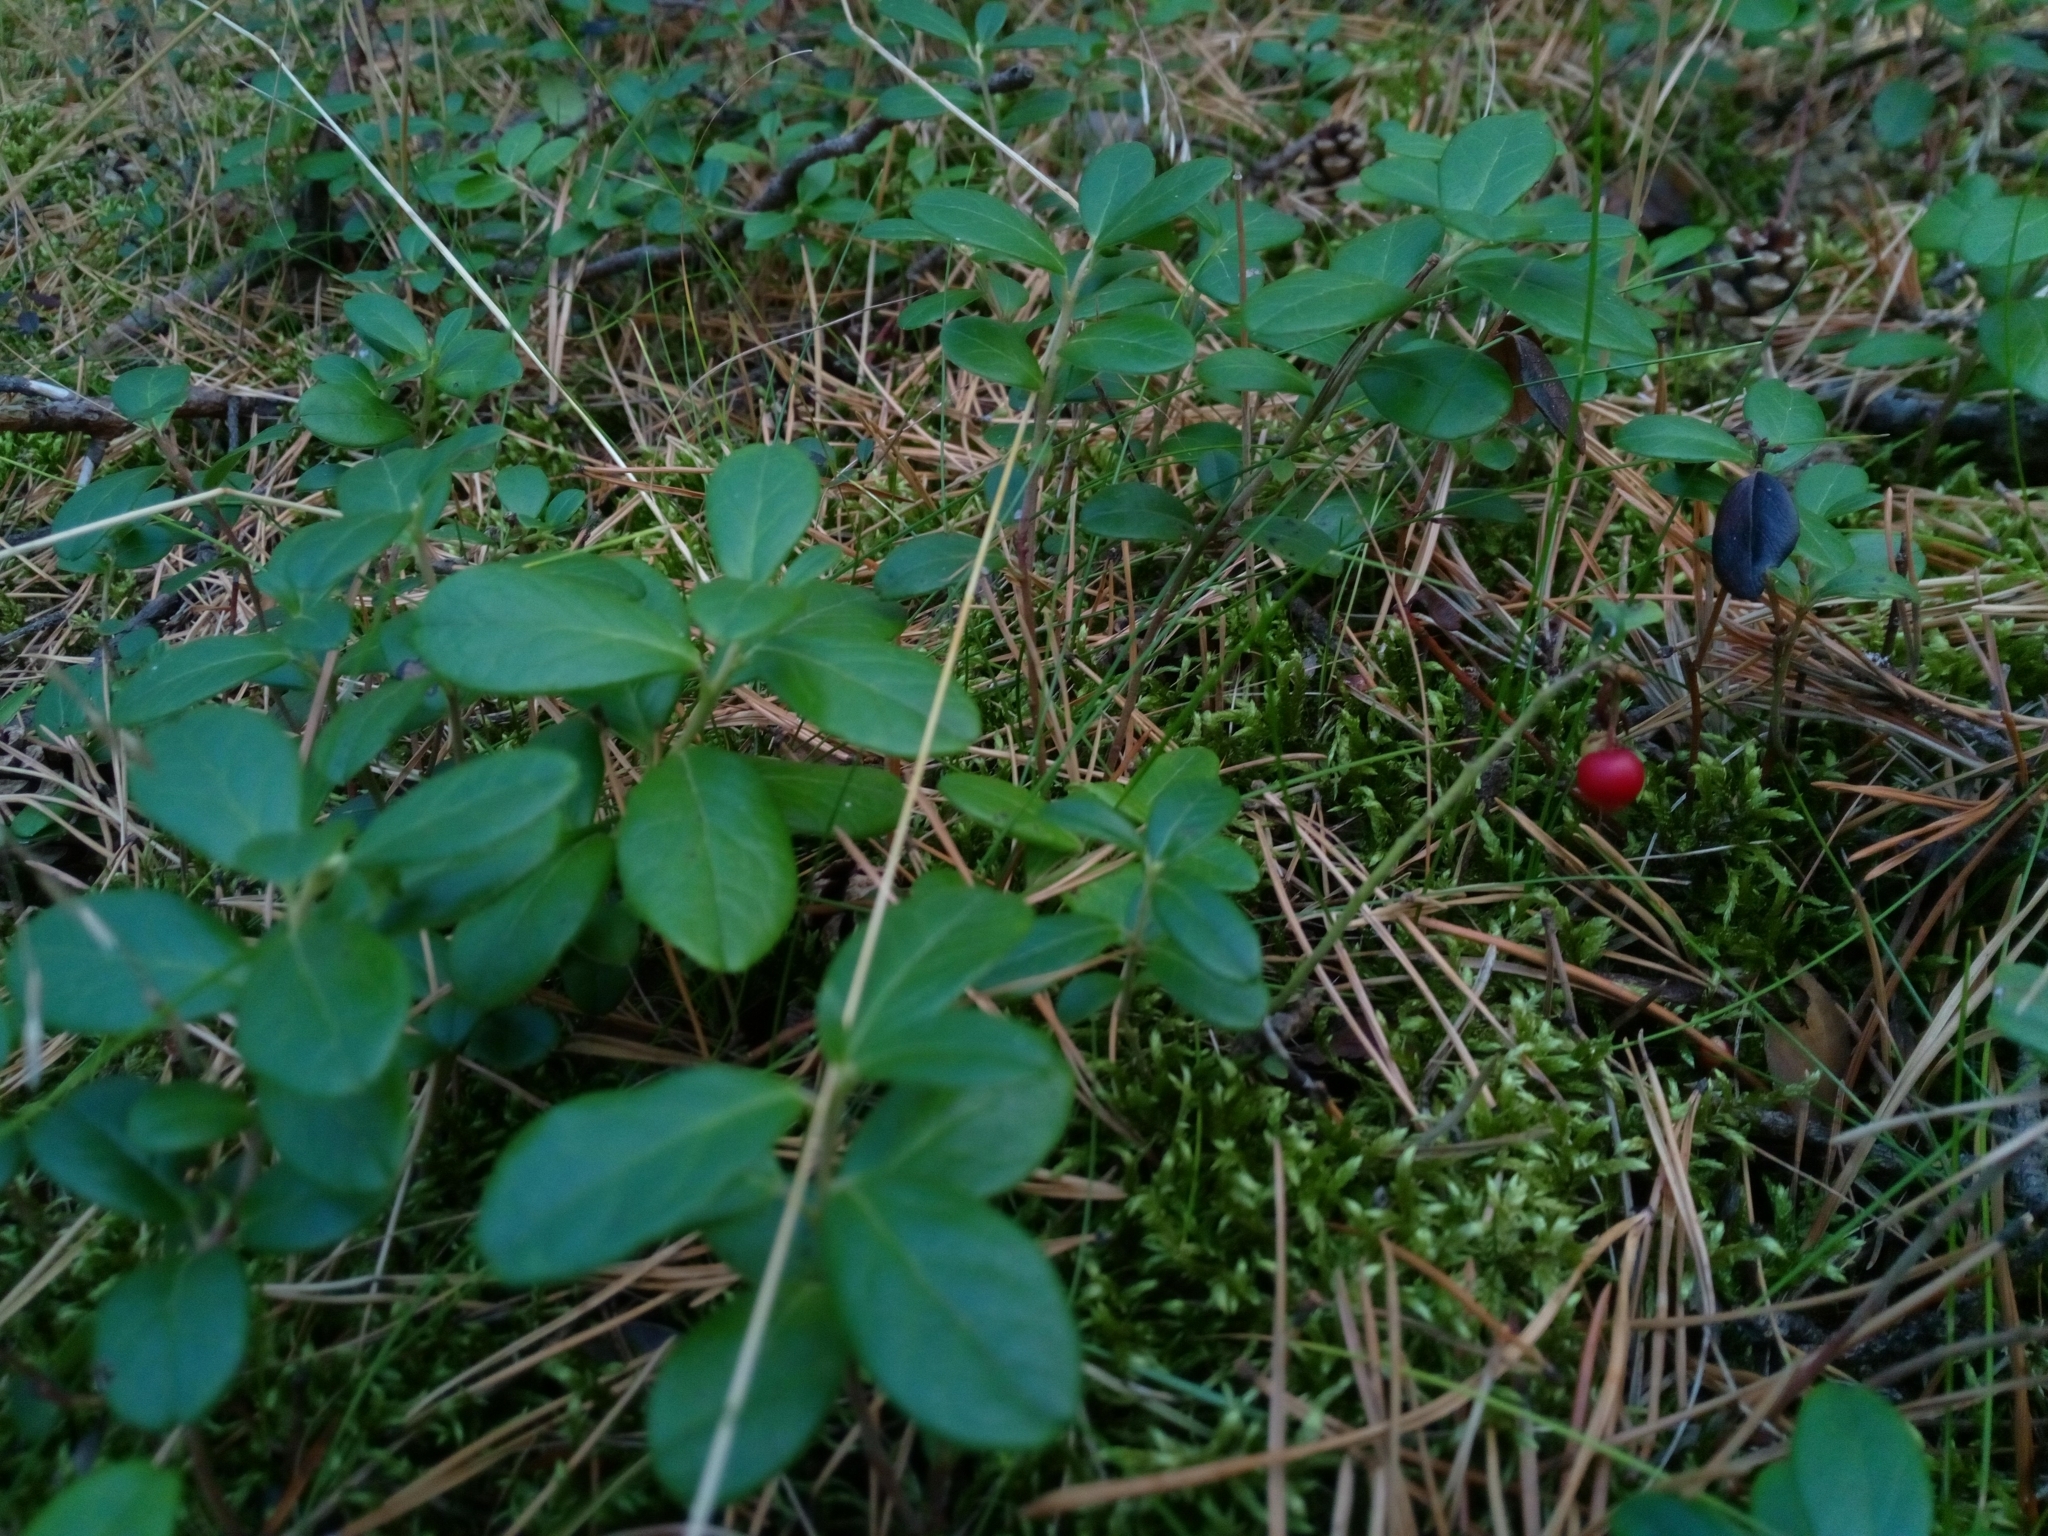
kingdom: Plantae
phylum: Tracheophyta
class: Magnoliopsida
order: Ericales
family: Ericaceae
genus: Vaccinium
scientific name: Vaccinium vitis-idaea
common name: Cowberry
